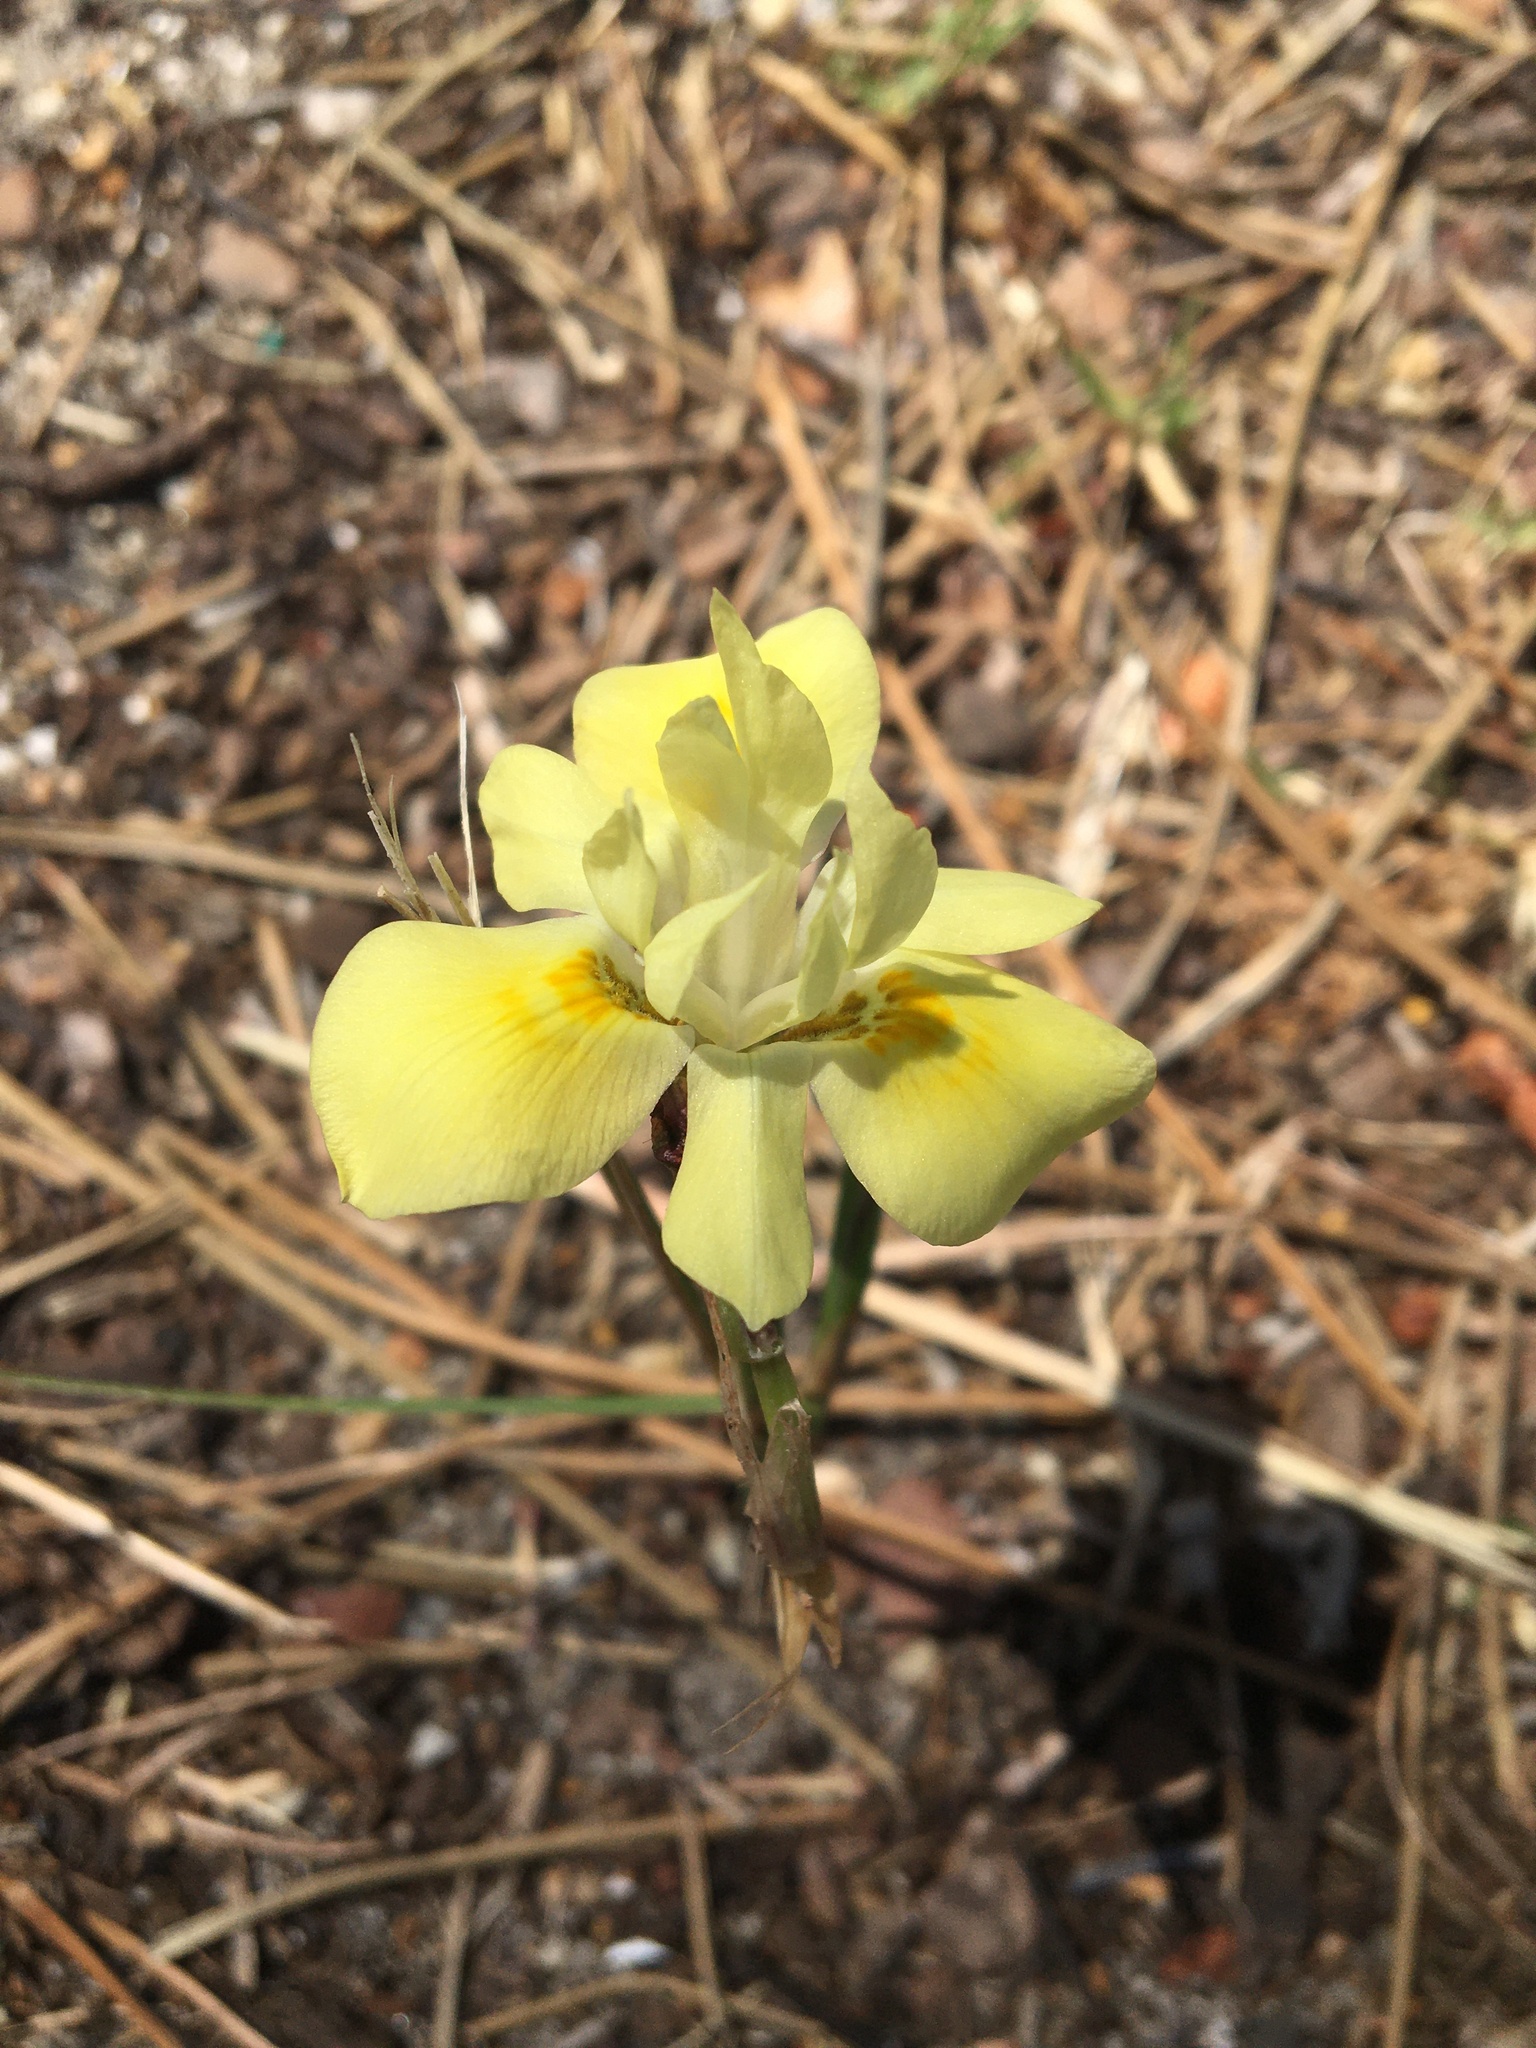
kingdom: Plantae
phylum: Tracheophyta
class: Liliopsida
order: Asparagales
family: Iridaceae
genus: Moraea
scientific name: Moraea fugax
